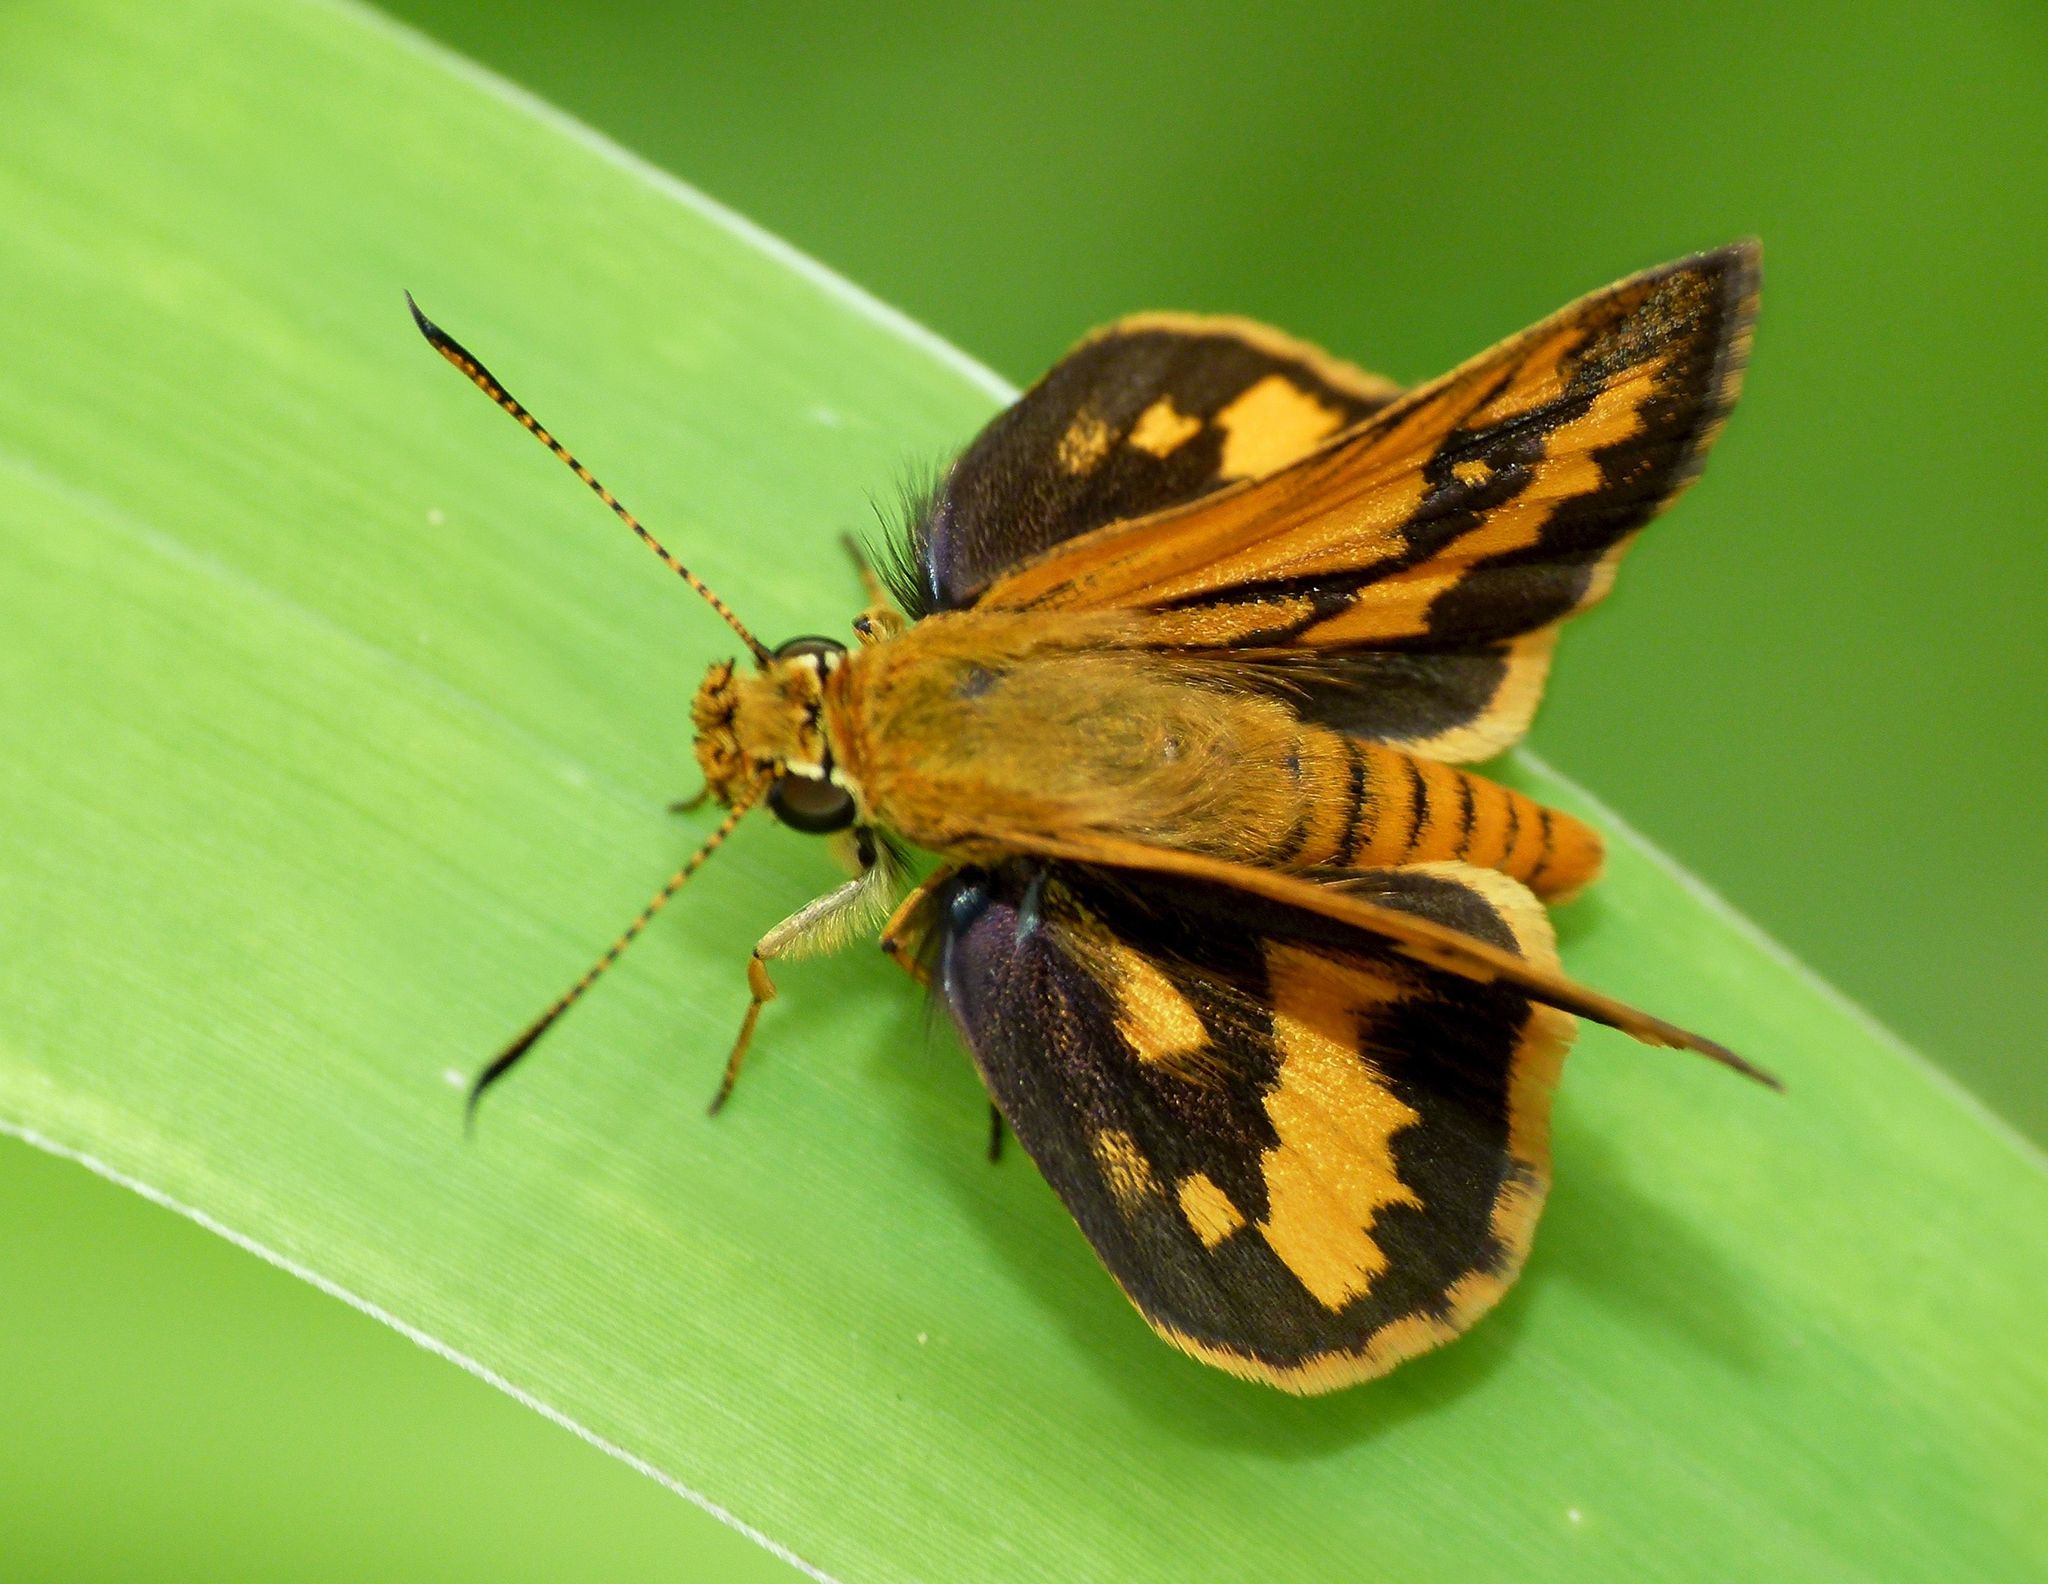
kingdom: Animalia
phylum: Arthropoda
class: Insecta
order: Lepidoptera
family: Hesperiidae
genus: Suniana
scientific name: Suniana sunias
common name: Wide-brand grass-dart
